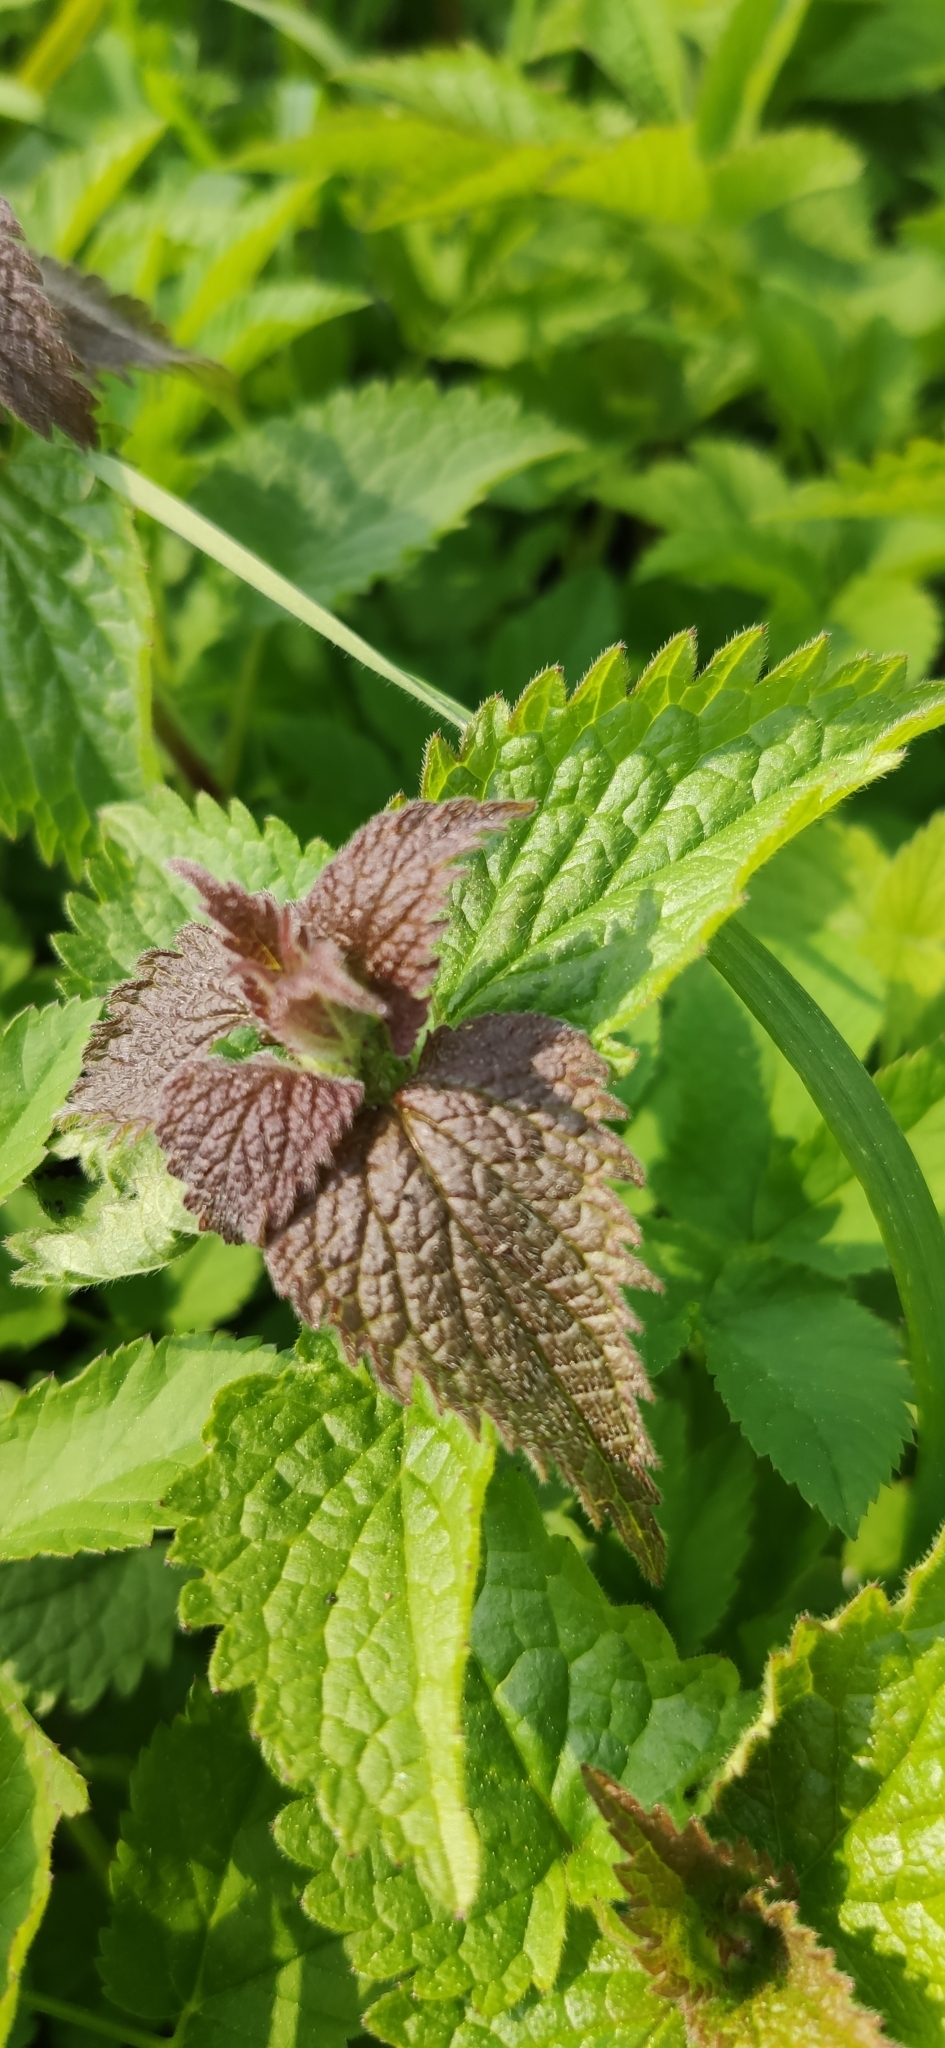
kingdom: Plantae
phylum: Tracheophyta
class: Magnoliopsida
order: Lamiales
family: Lamiaceae
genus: Lamium
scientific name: Lamium album
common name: White dead-nettle
